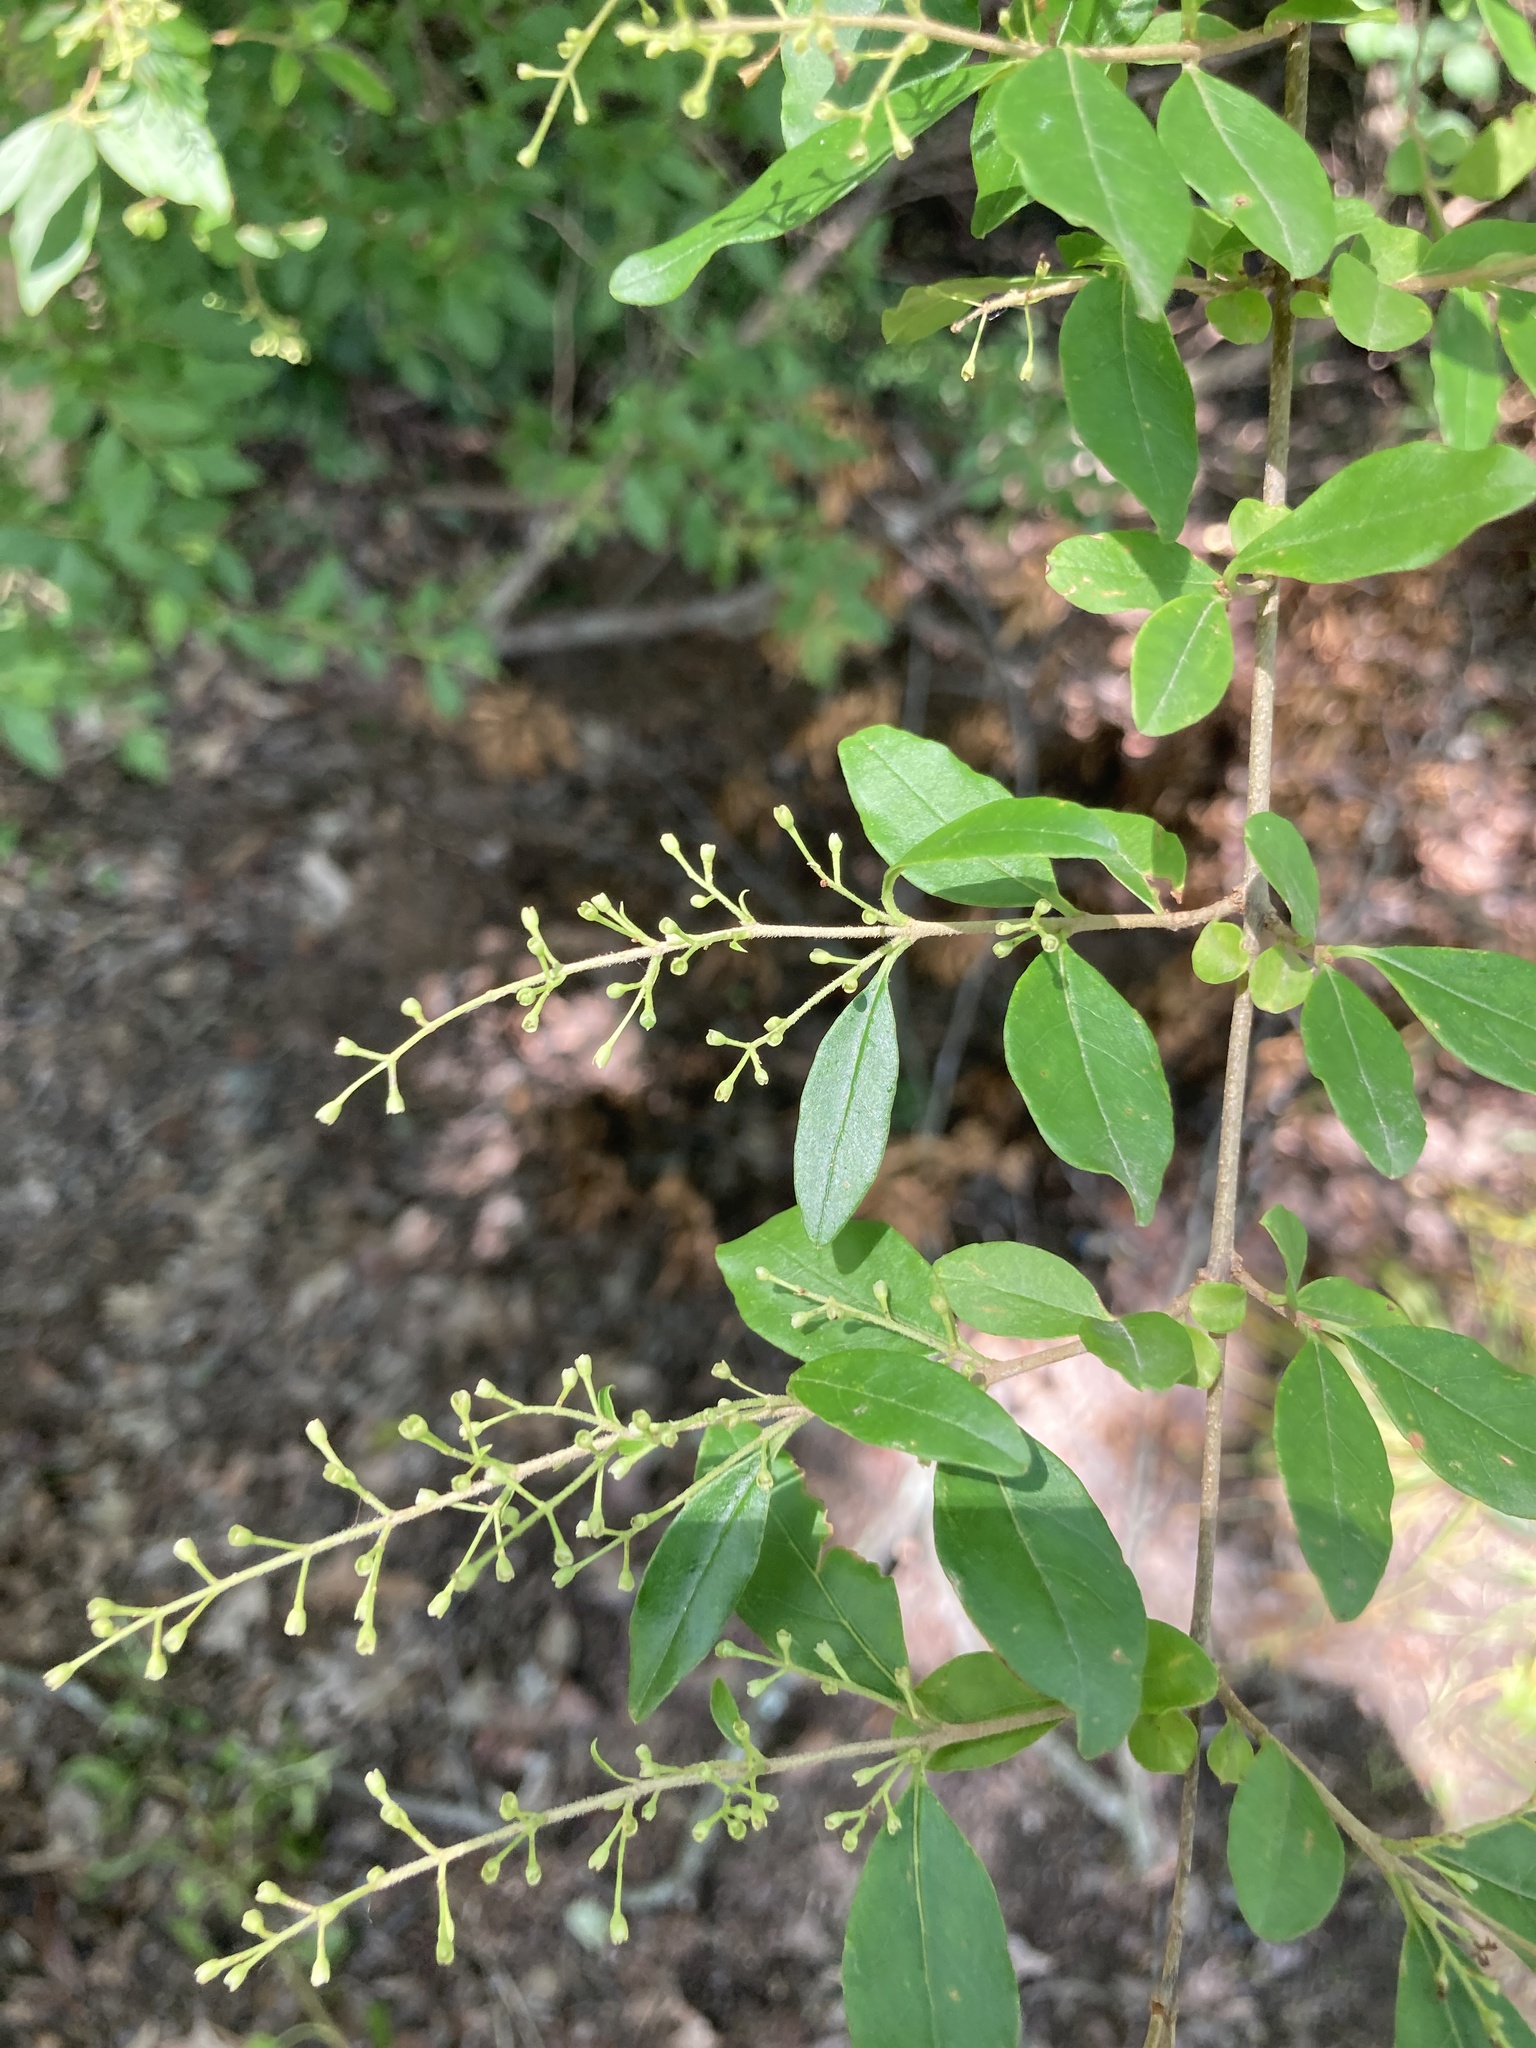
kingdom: Plantae
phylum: Tracheophyta
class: Magnoliopsida
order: Lamiales
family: Oleaceae
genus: Ligustrum
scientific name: Ligustrum sinense
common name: Chinese privet
